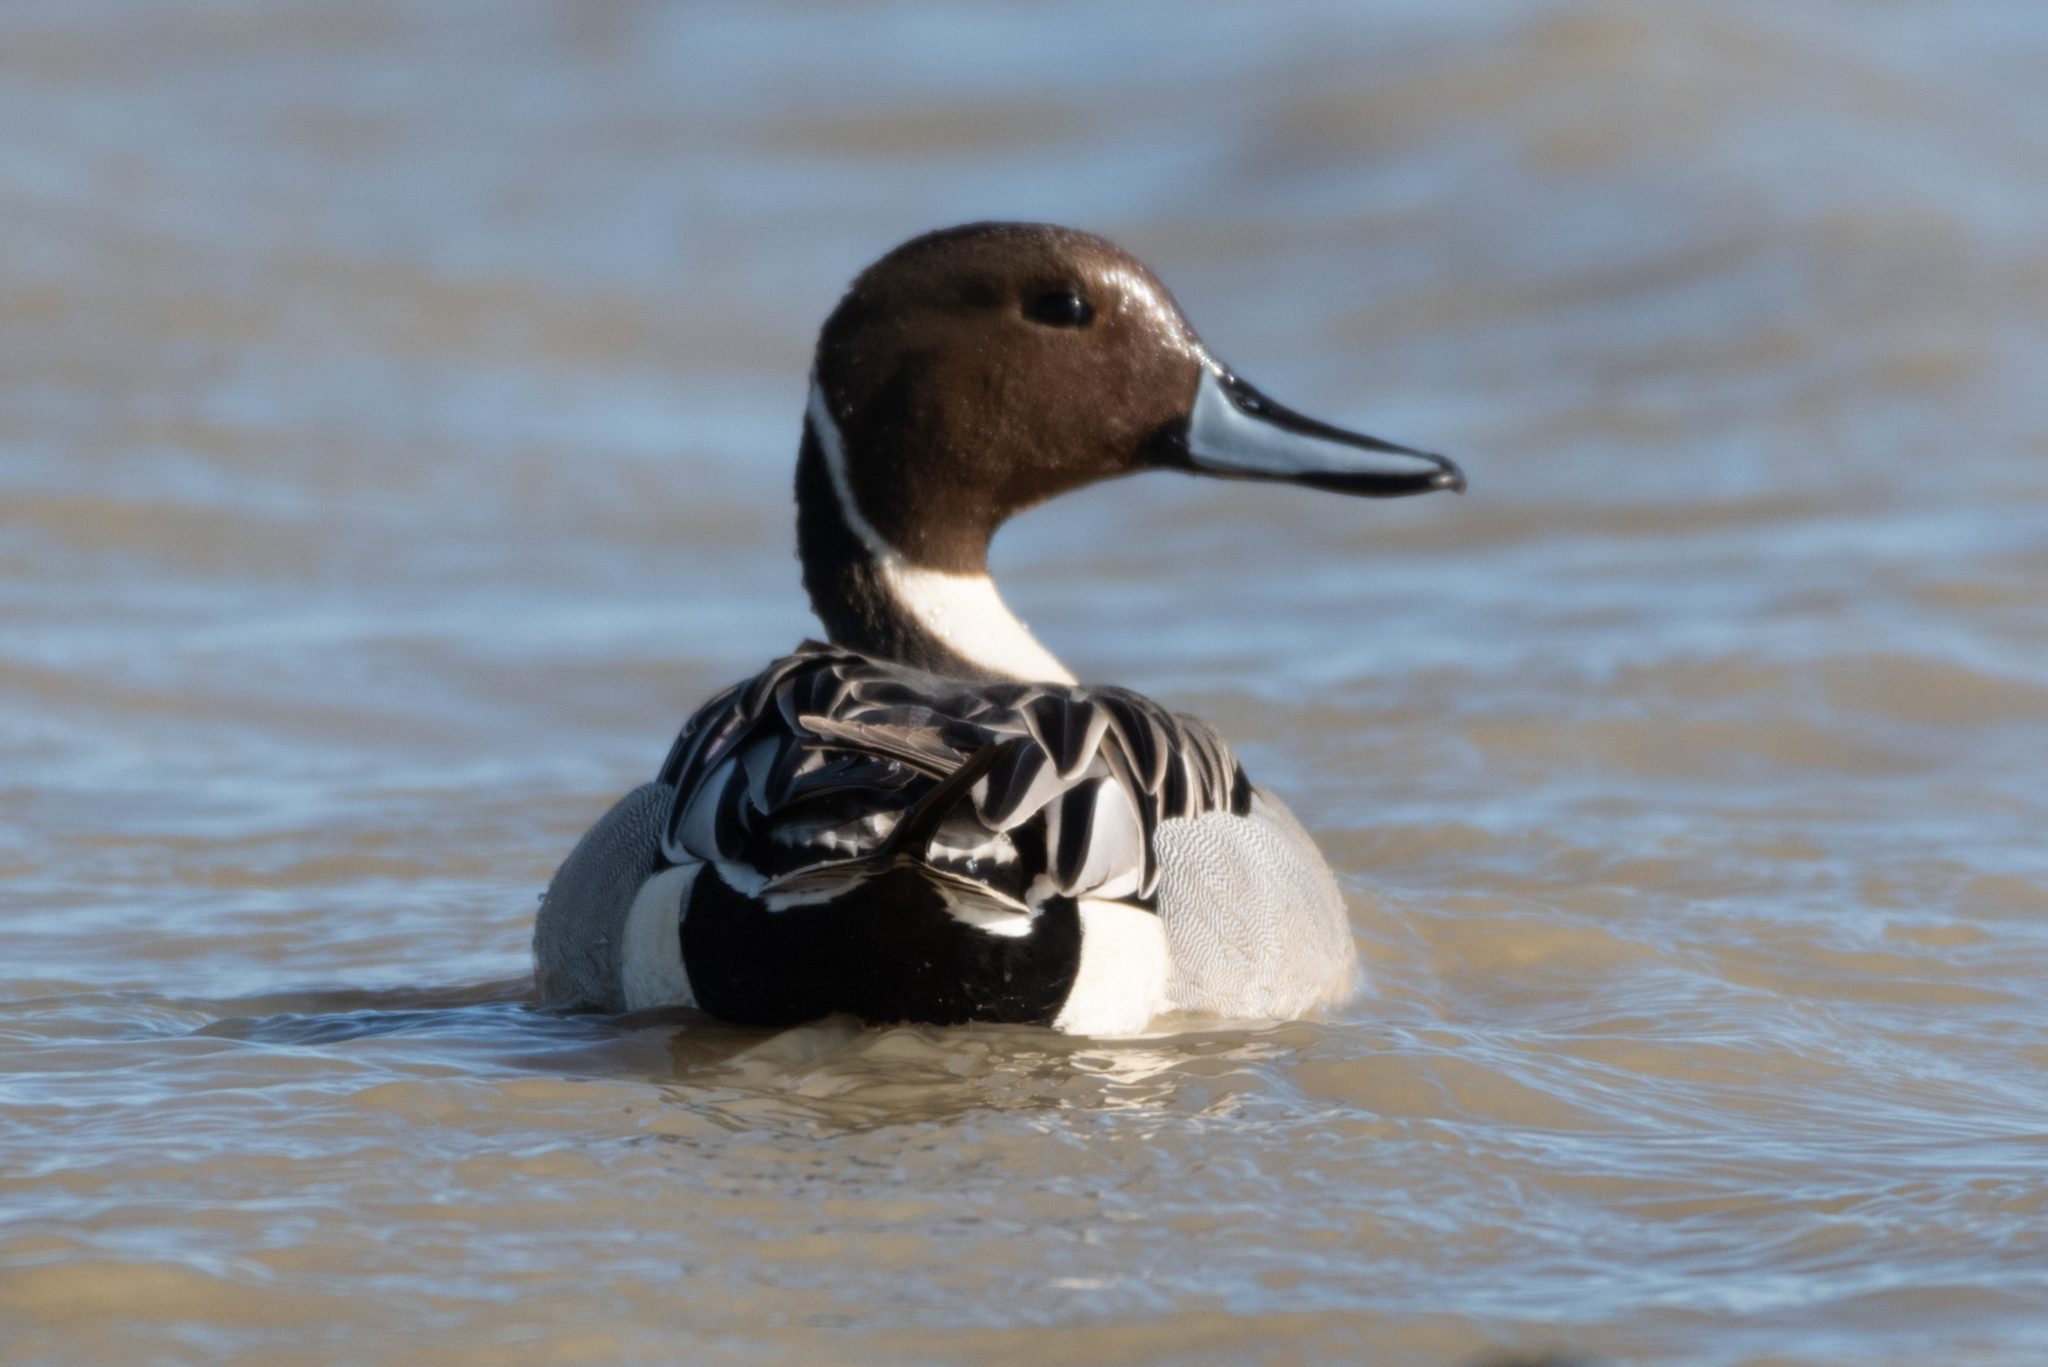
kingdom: Animalia
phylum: Chordata
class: Aves
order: Anseriformes
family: Anatidae
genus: Anas
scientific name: Anas acuta
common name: Northern pintail
